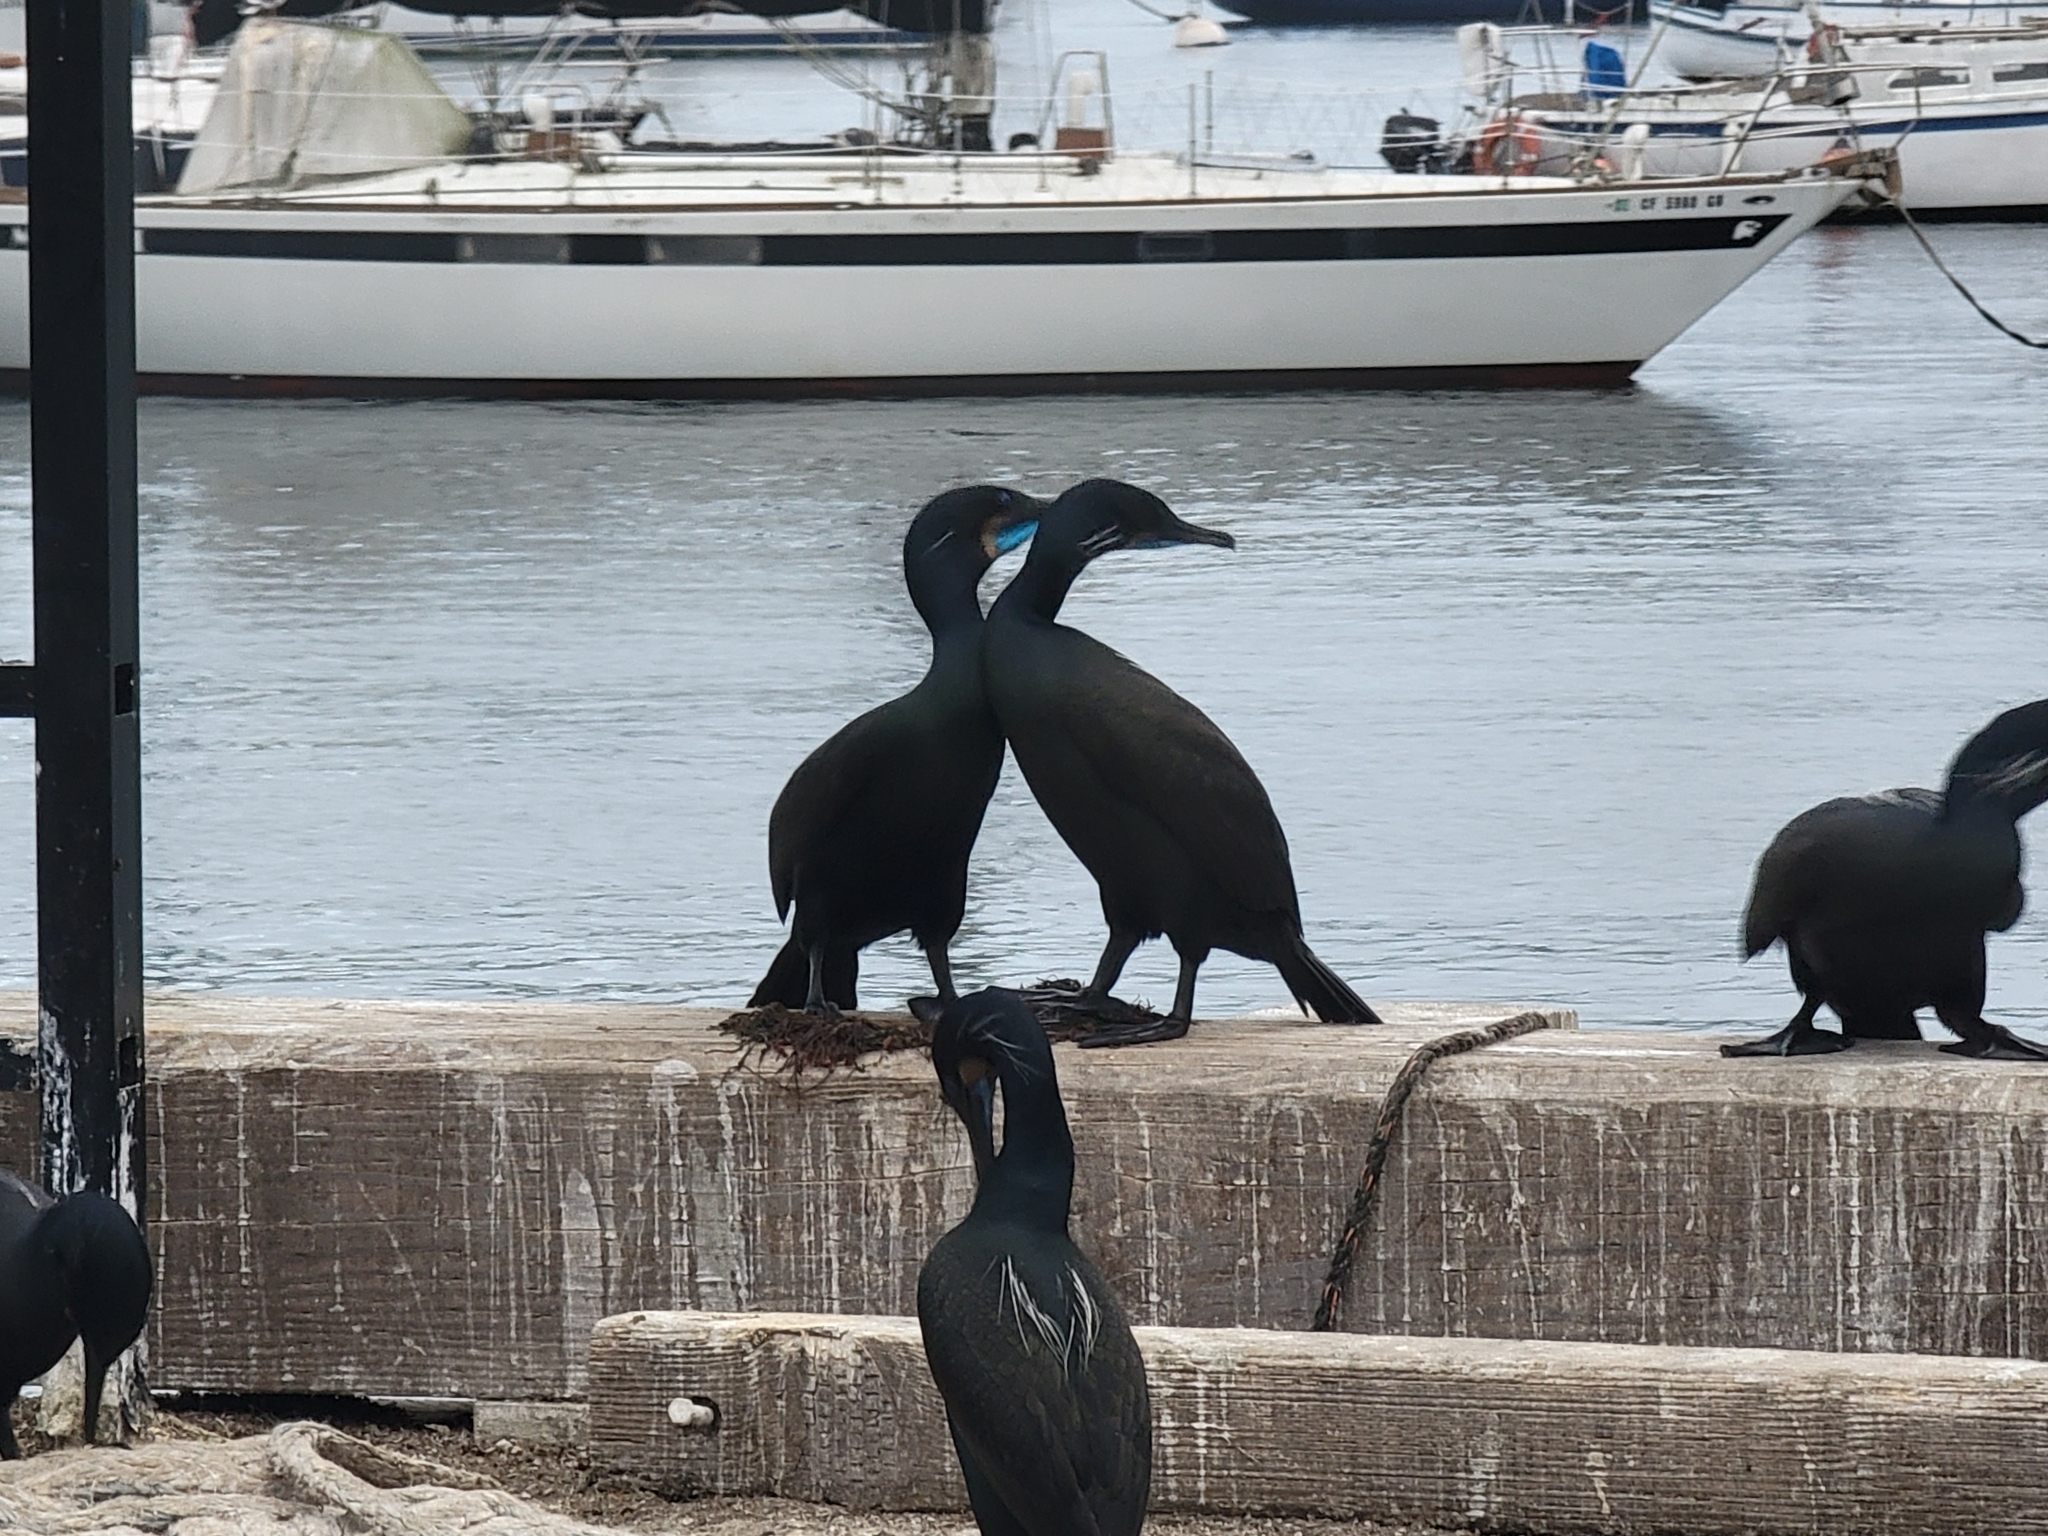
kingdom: Animalia
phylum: Chordata
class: Aves
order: Suliformes
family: Phalacrocoracidae
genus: Urile
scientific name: Urile penicillatus
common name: Brandt's cormorant
